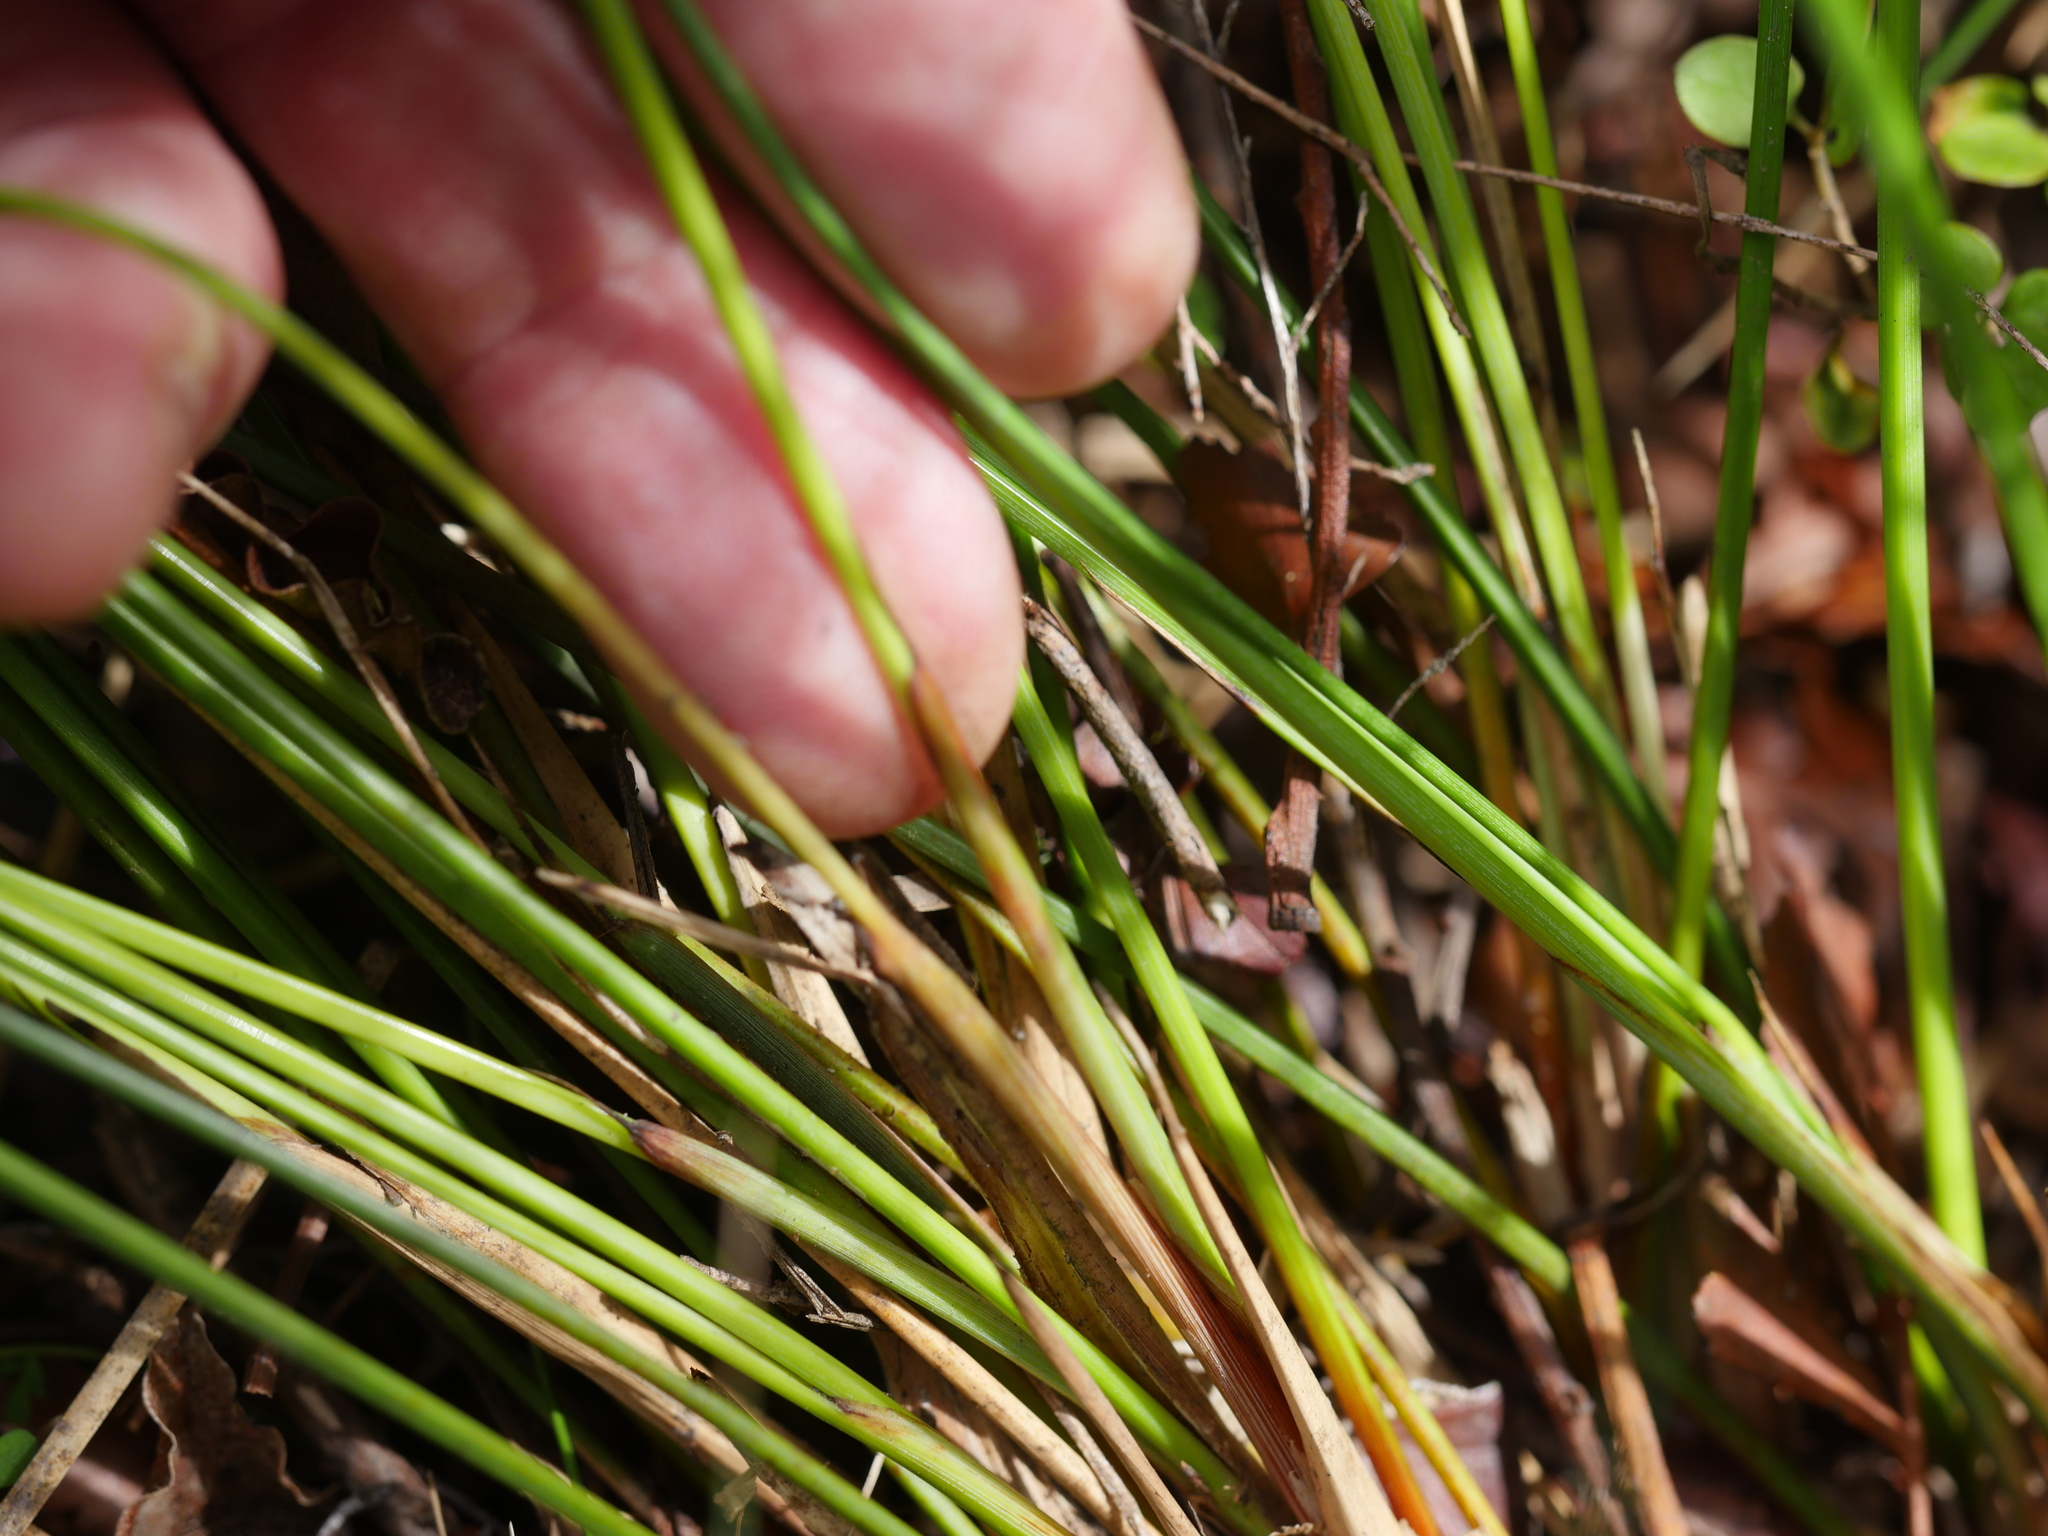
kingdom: Plantae
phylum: Tracheophyta
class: Liliopsida
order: Poales
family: Cyperaceae
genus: Lepidosperma
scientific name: Lepidosperma australe
